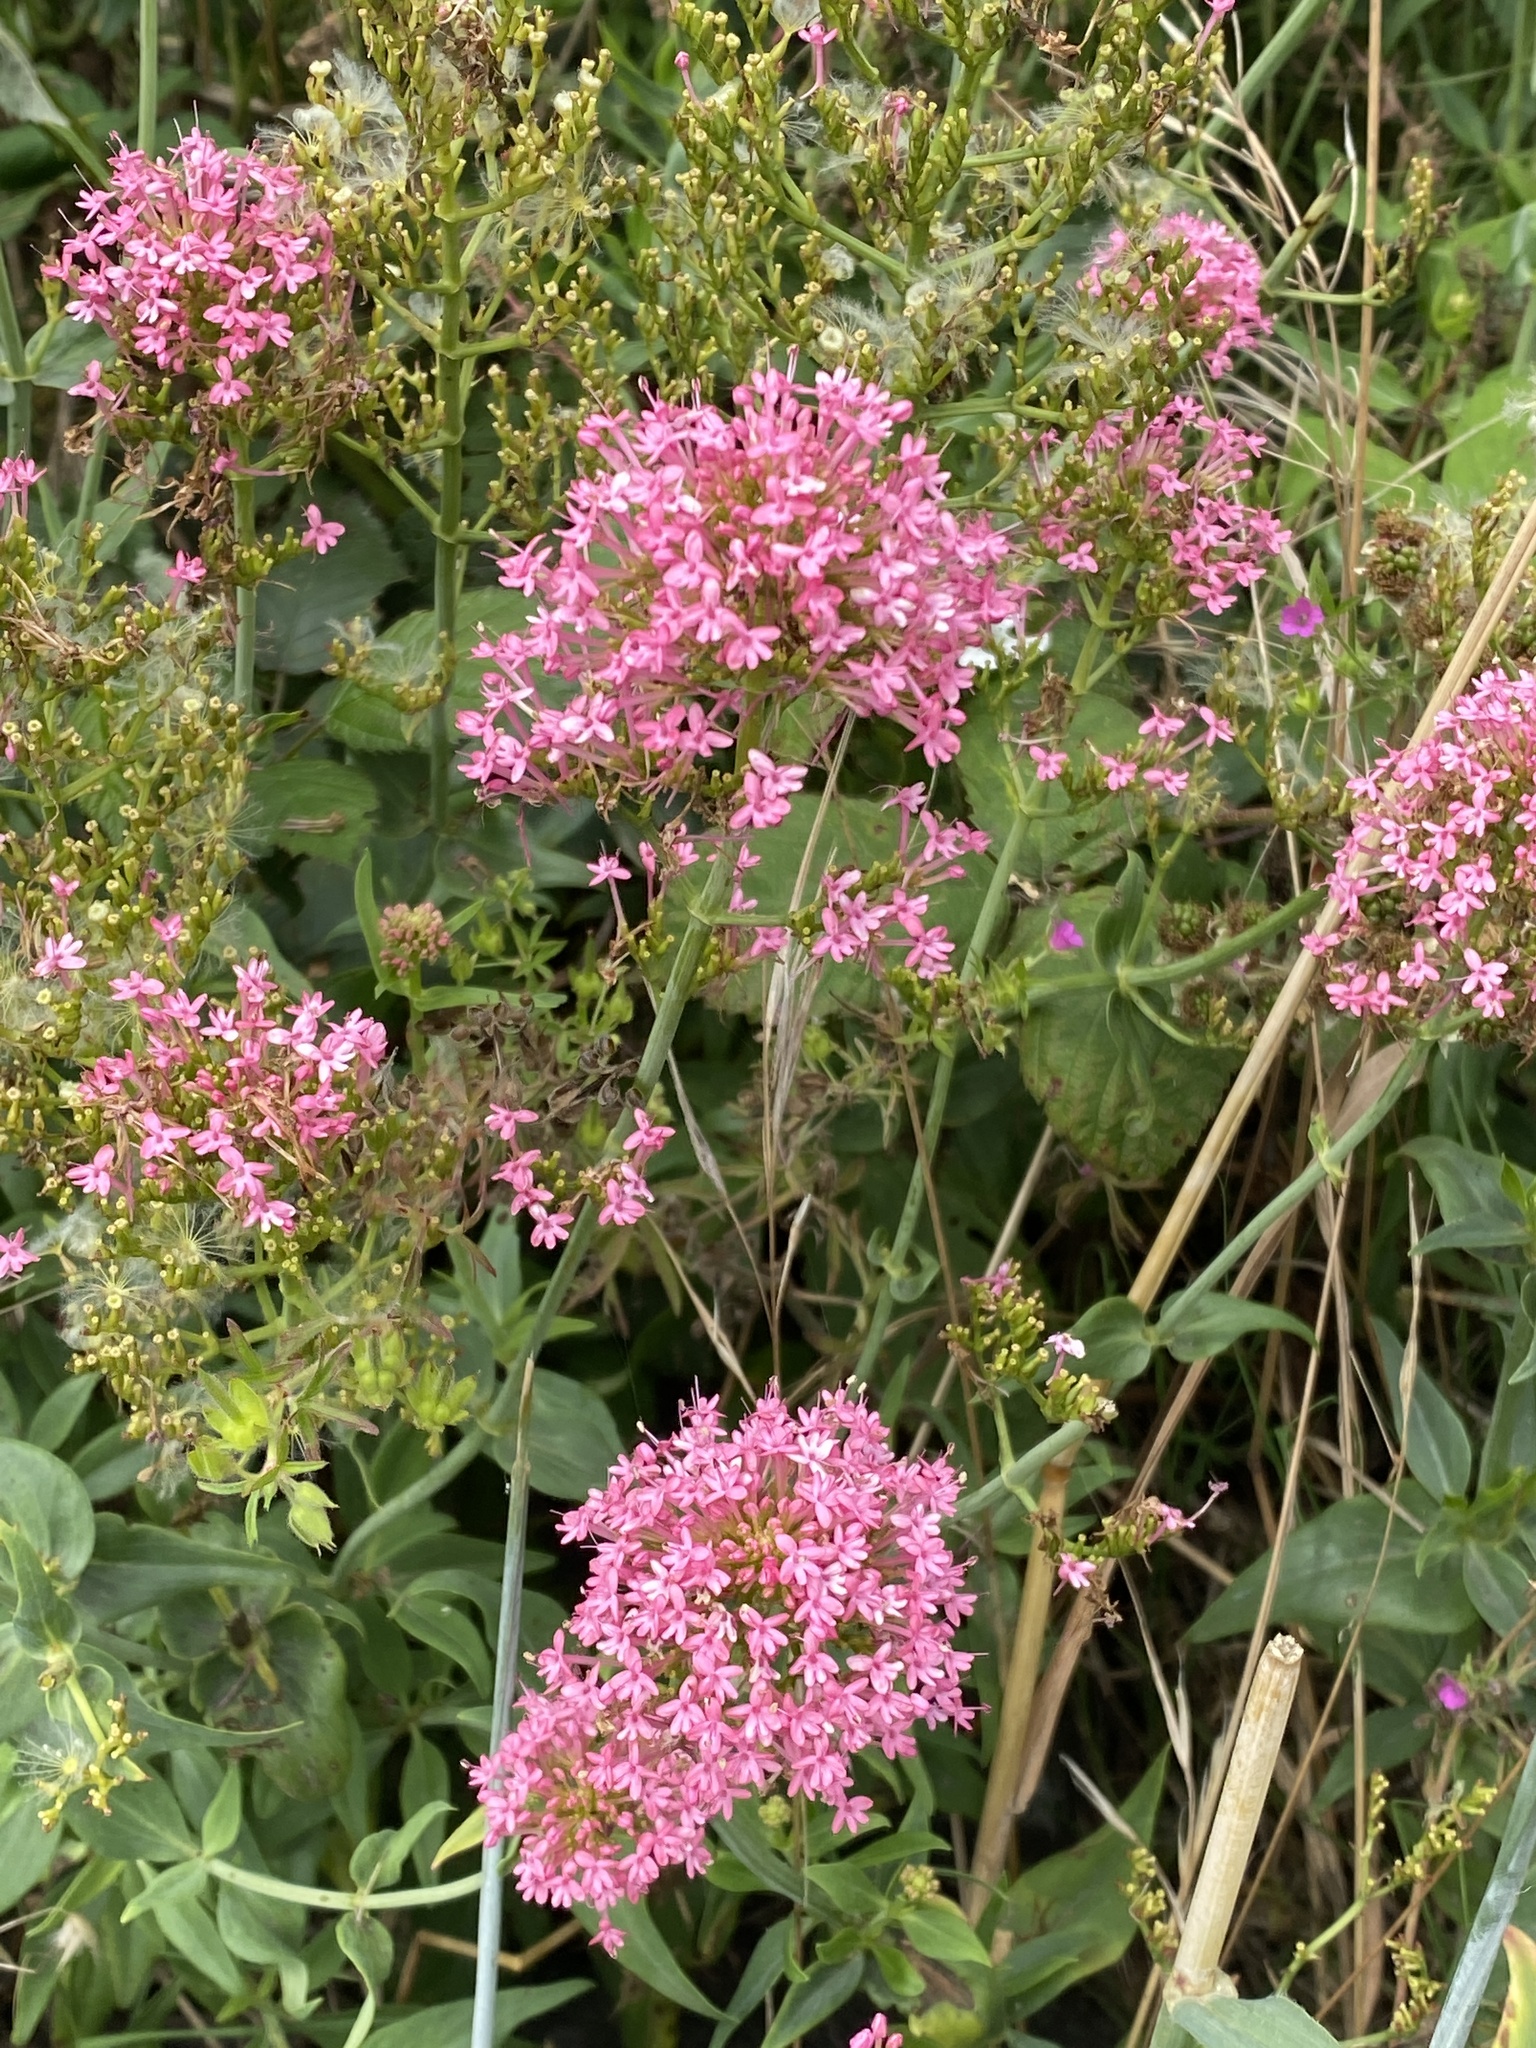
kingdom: Plantae
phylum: Tracheophyta
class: Magnoliopsida
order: Dipsacales
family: Caprifoliaceae
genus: Centranthus
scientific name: Centranthus ruber
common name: Red valerian
